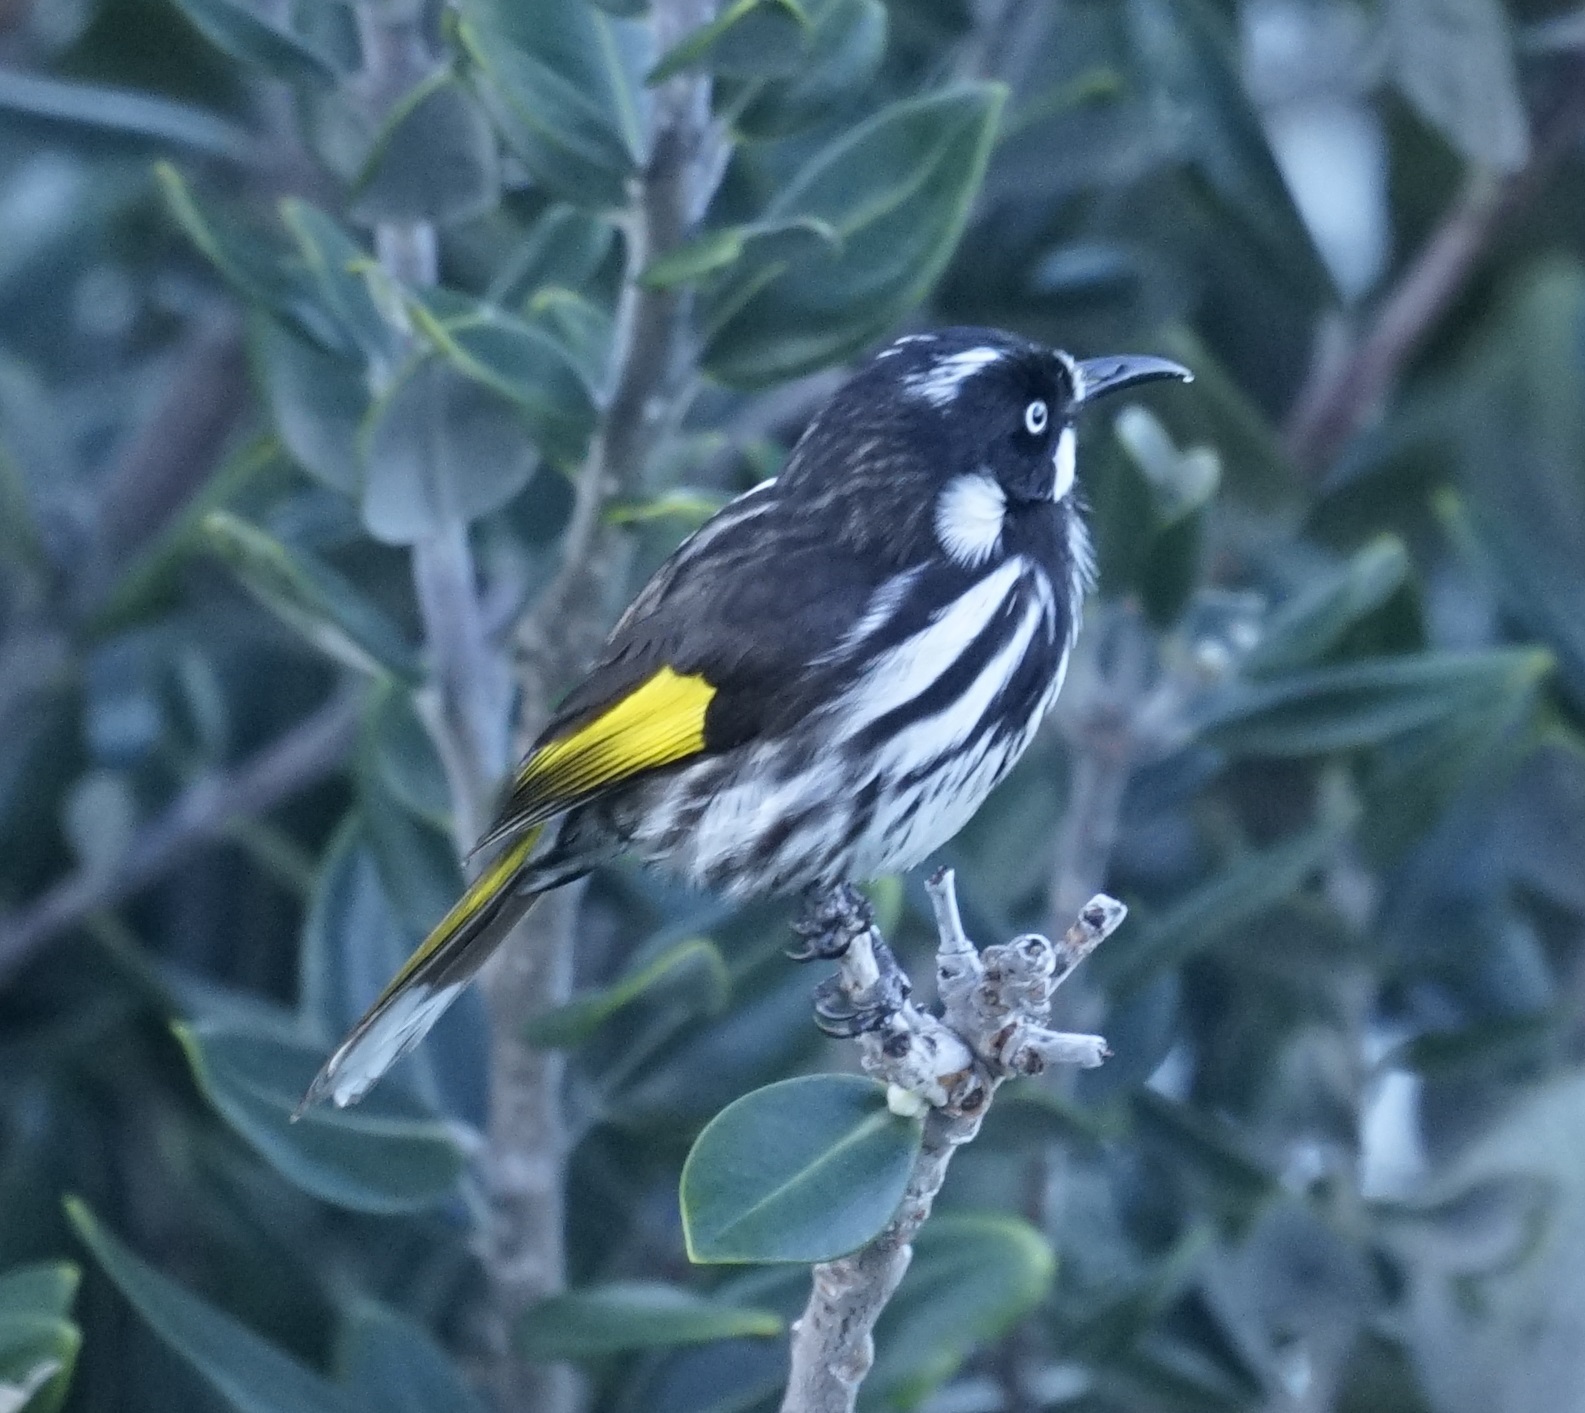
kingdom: Animalia
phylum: Chordata
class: Aves
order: Passeriformes
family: Meliphagidae
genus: Phylidonyris
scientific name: Phylidonyris novaehollandiae
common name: New holland honeyeater
